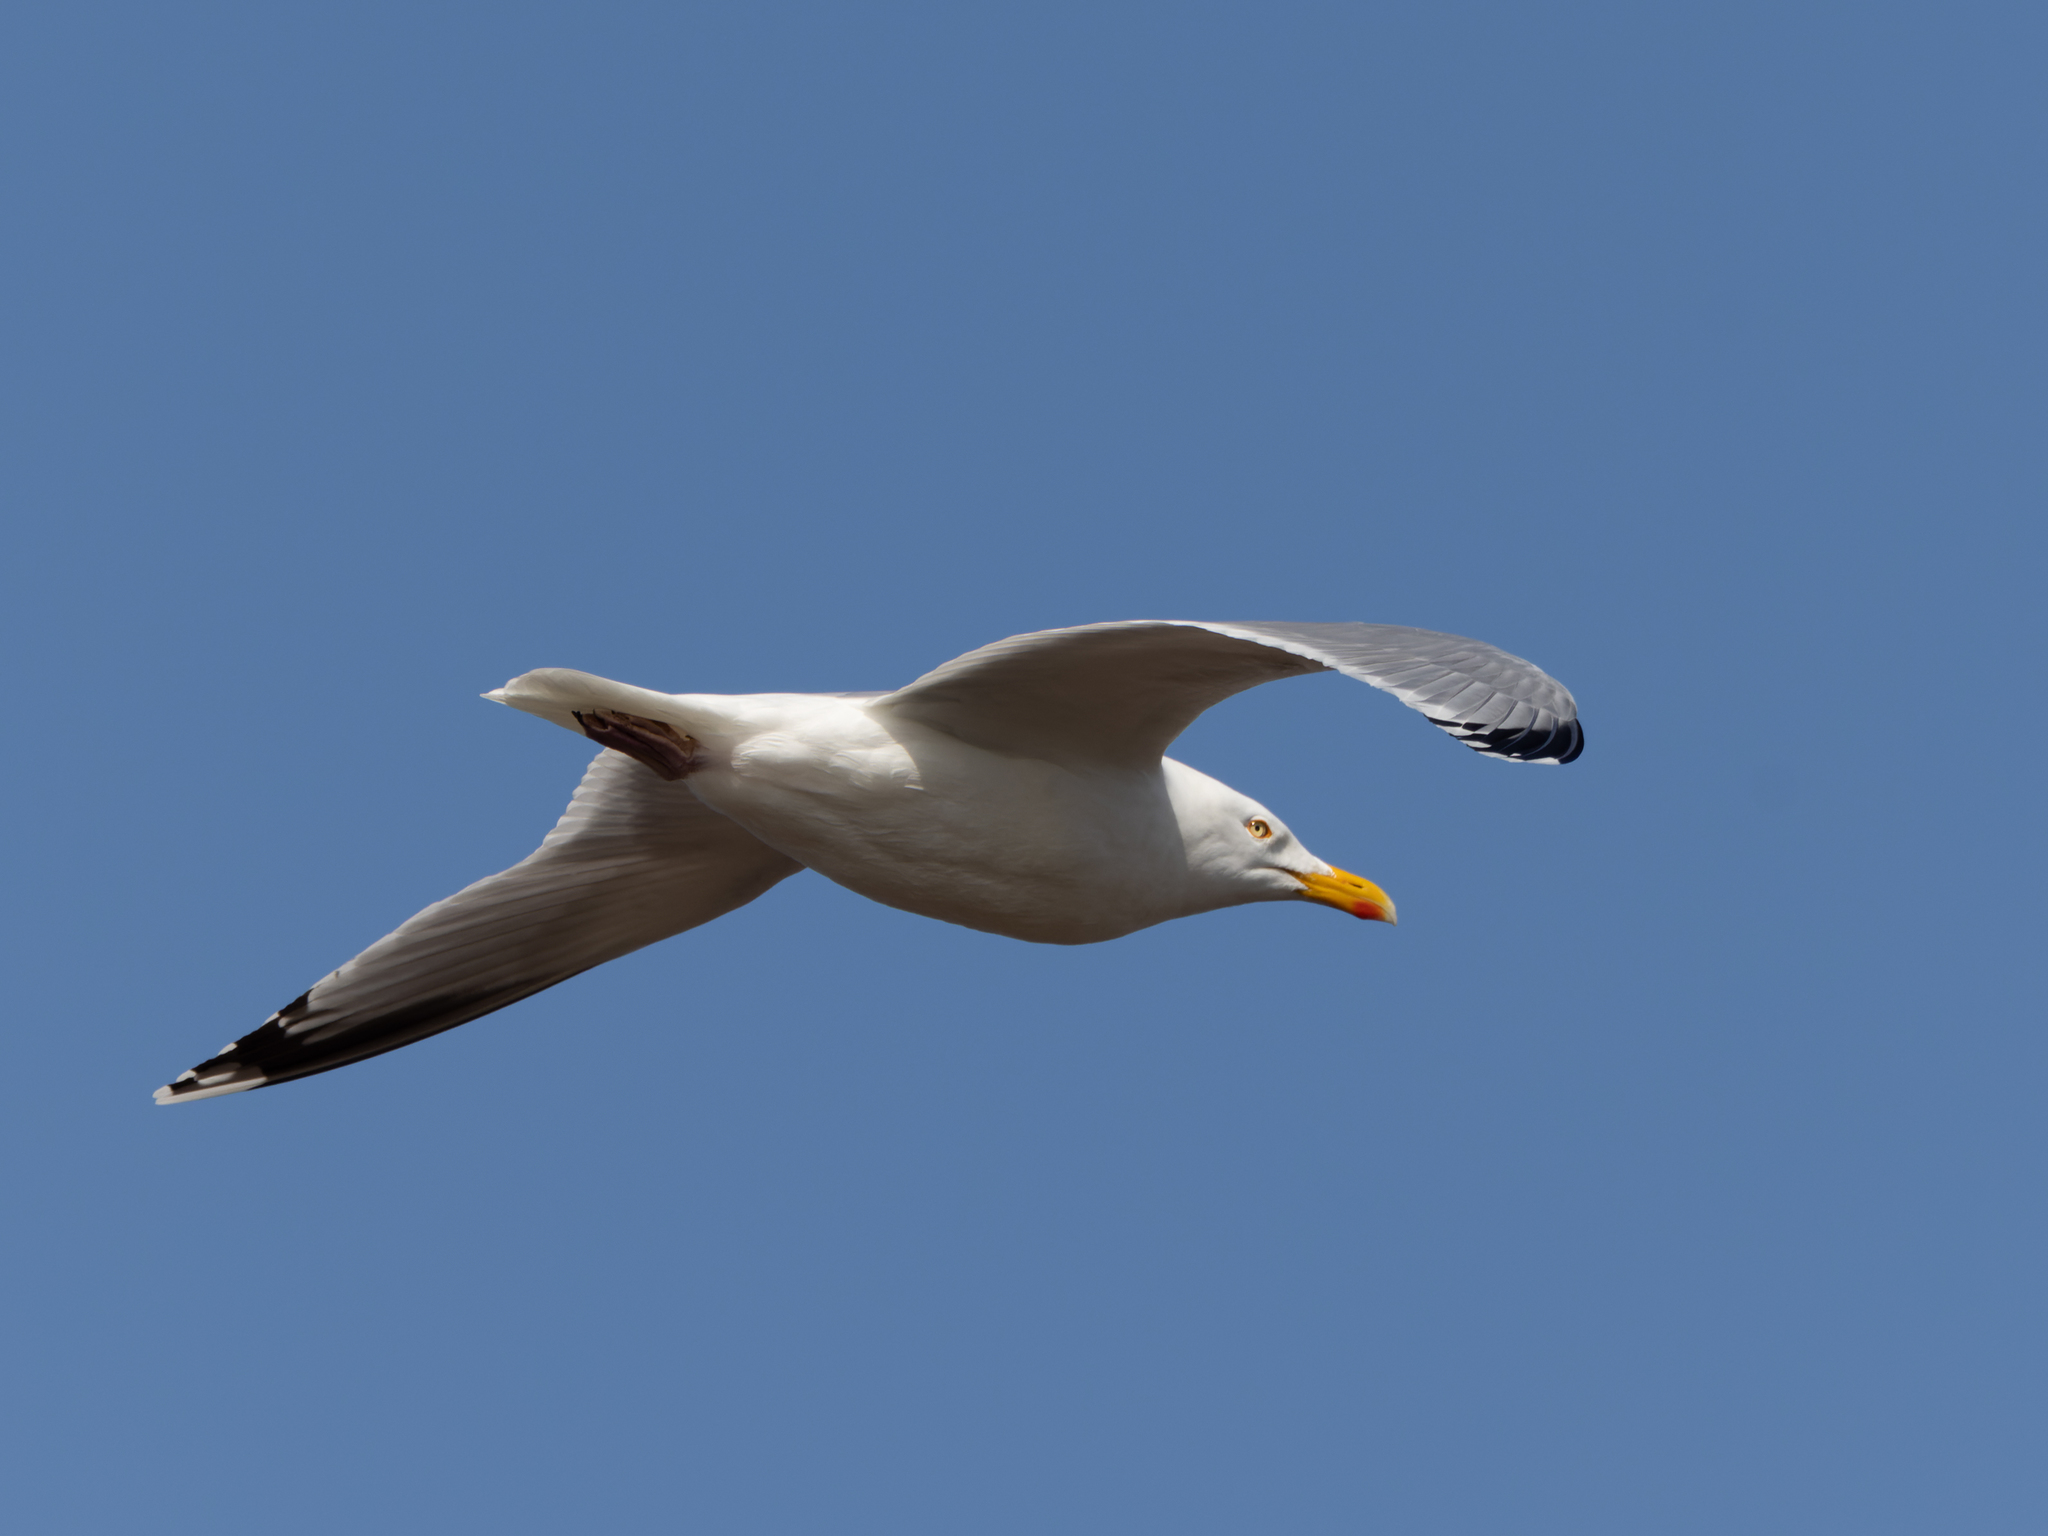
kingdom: Animalia
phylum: Chordata
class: Aves
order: Charadriiformes
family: Laridae
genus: Larus
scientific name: Larus argentatus
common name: Herring gull
